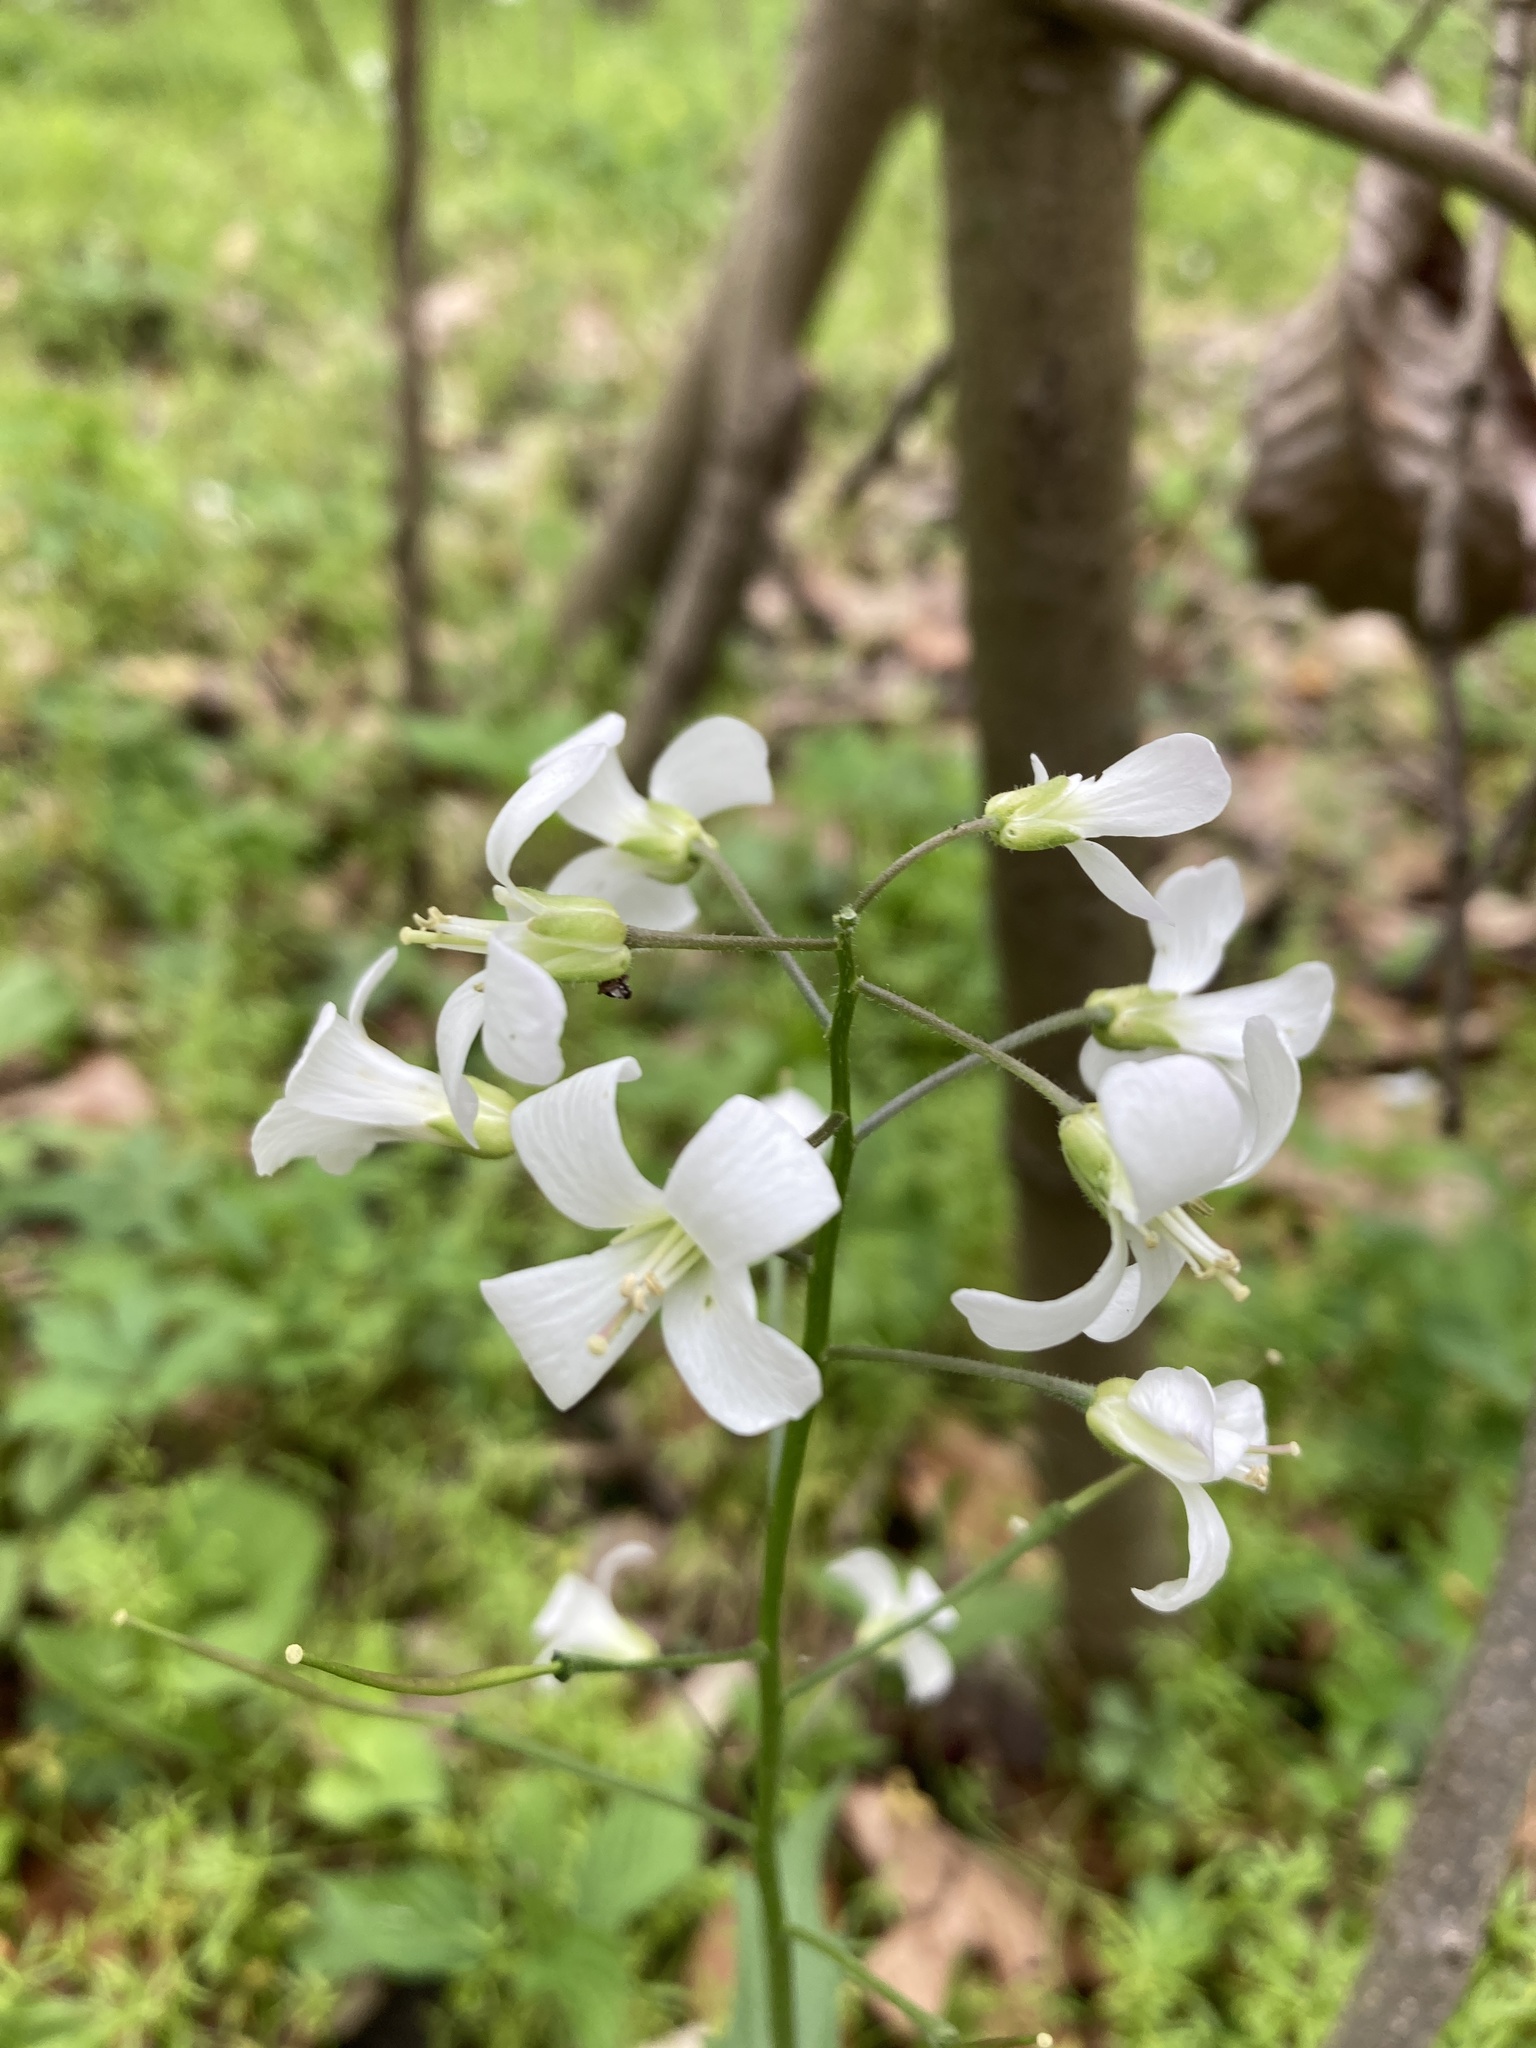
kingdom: Plantae
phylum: Tracheophyta
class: Magnoliopsida
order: Brassicales
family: Brassicaceae
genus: Cardamine
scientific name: Cardamine bulbosa
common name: Spring cress
